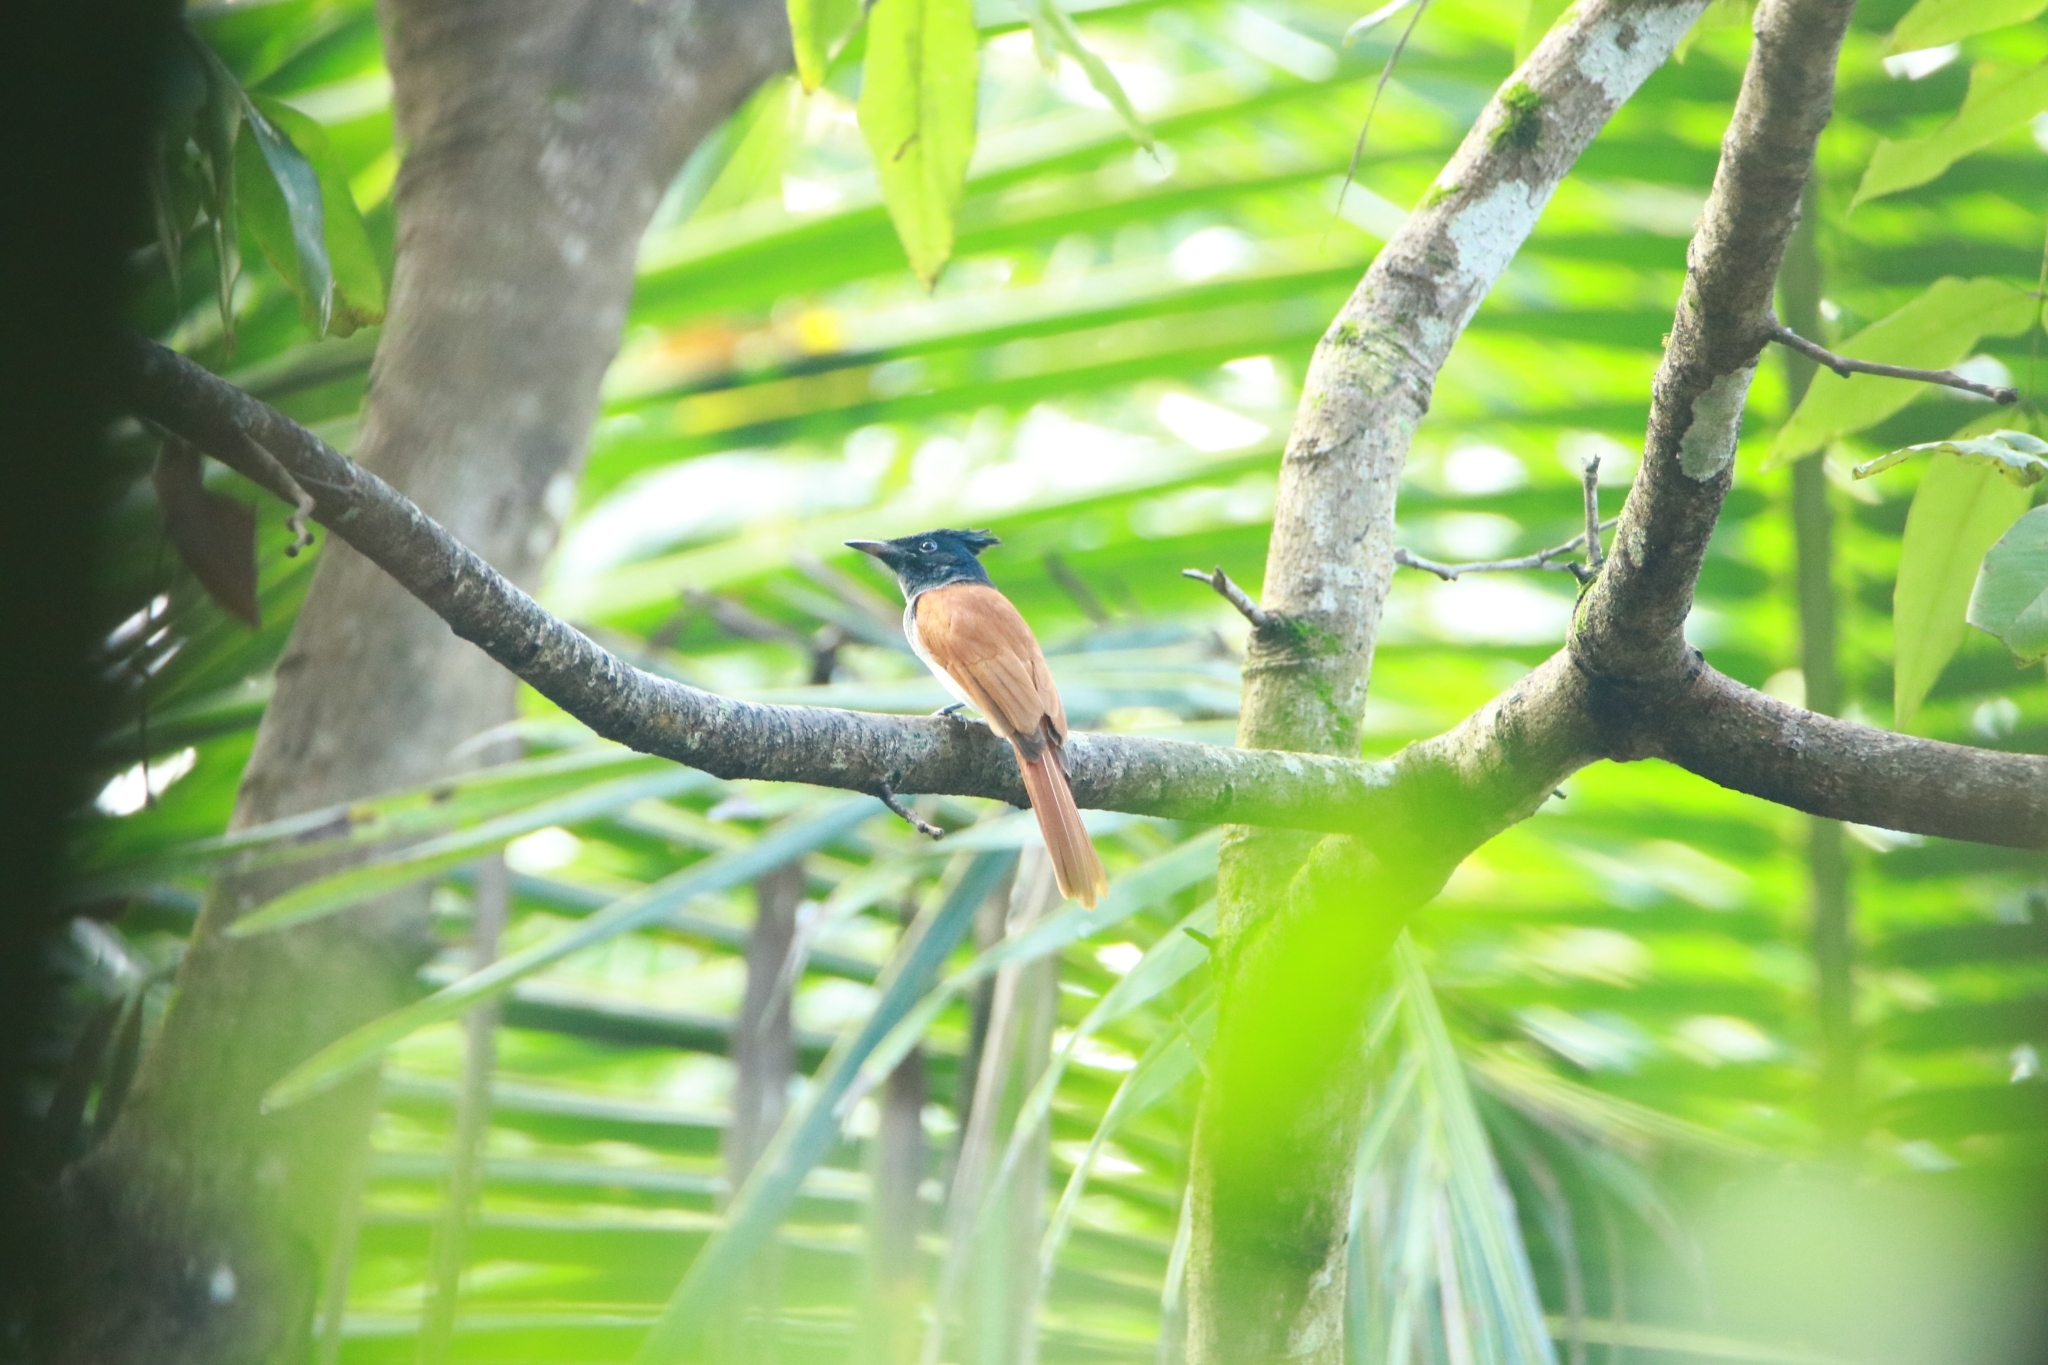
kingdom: Animalia
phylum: Chordata
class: Aves
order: Passeriformes
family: Monarchidae
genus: Terpsiphone
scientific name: Terpsiphone paradisi
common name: Indian paradise flycatcher
